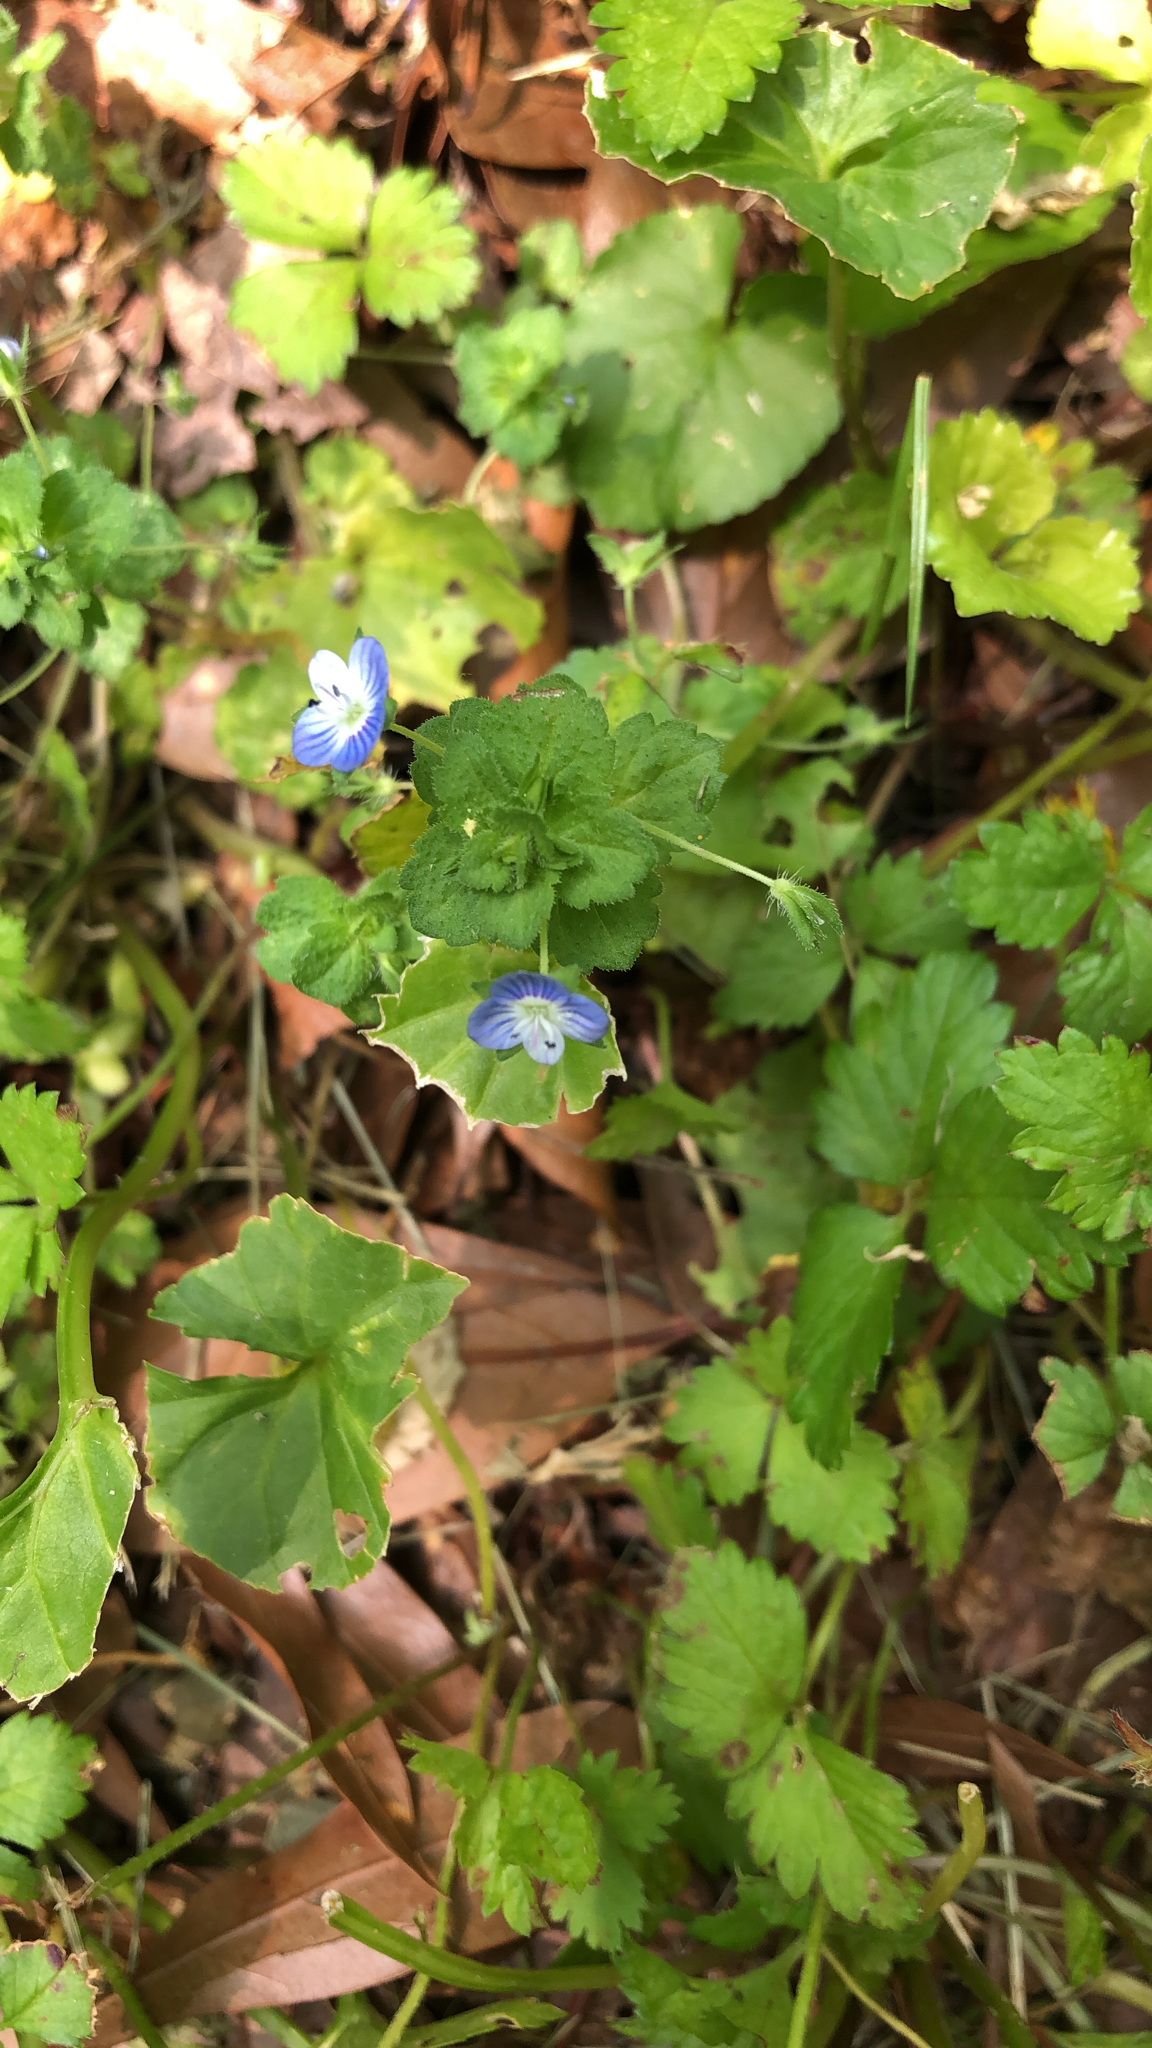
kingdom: Plantae
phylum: Tracheophyta
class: Magnoliopsida
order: Lamiales
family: Plantaginaceae
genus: Veronica
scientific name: Veronica persica
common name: Common field-speedwell
